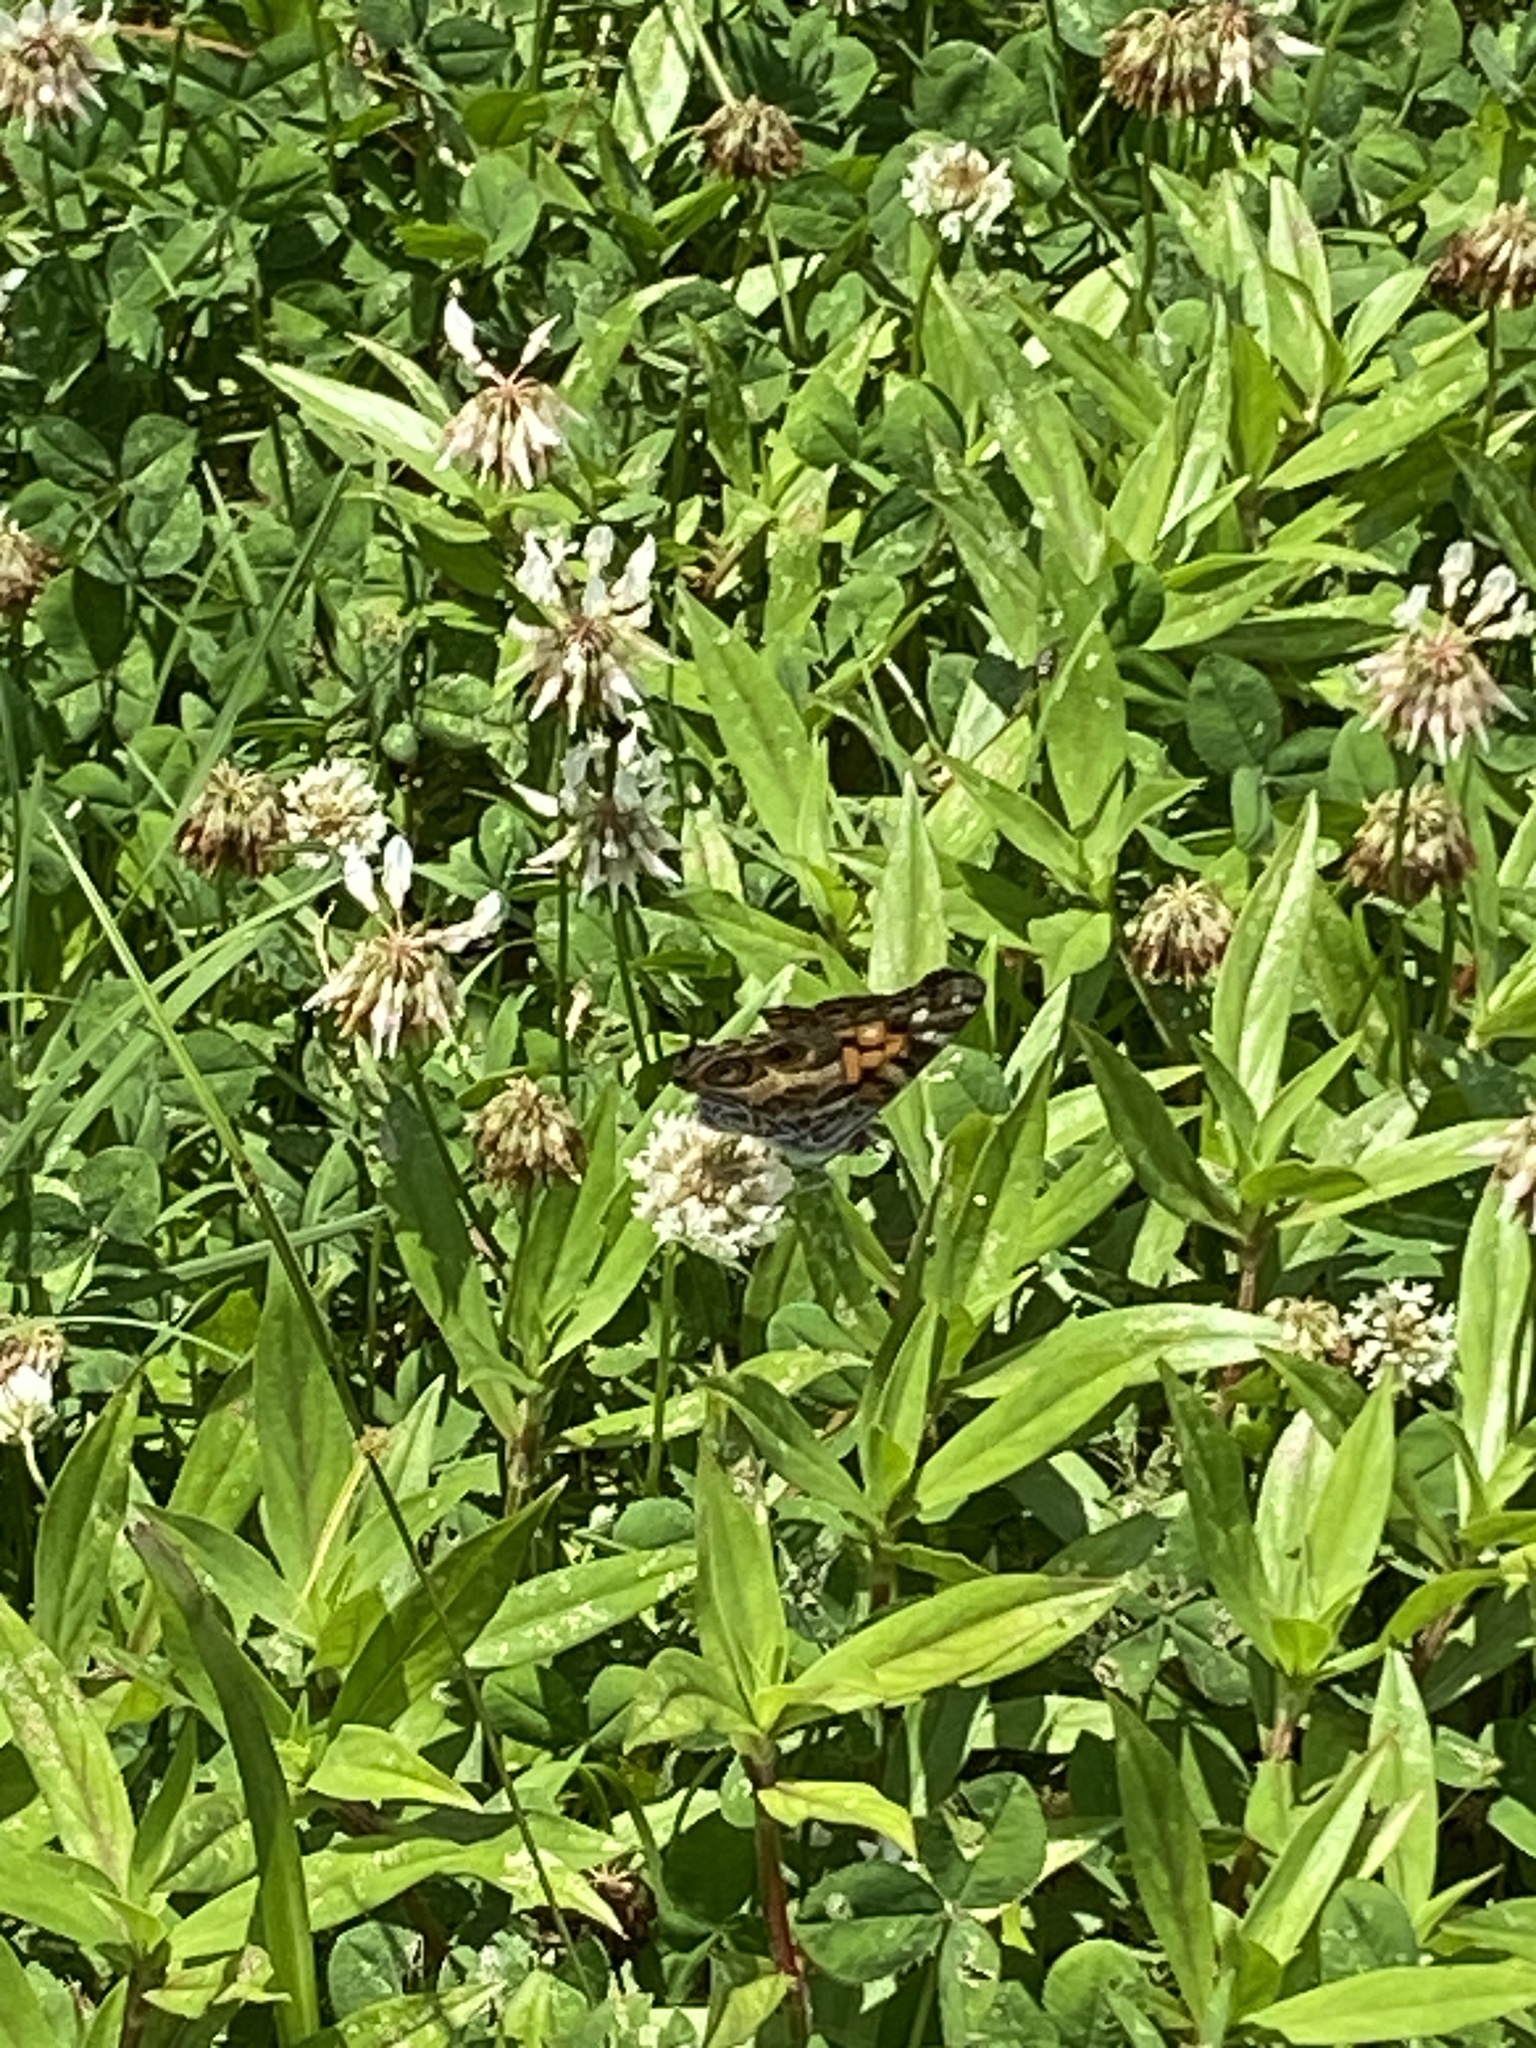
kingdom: Animalia
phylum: Arthropoda
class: Insecta
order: Lepidoptera
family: Nymphalidae
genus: Vanessa
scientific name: Vanessa virginiensis
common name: American lady
